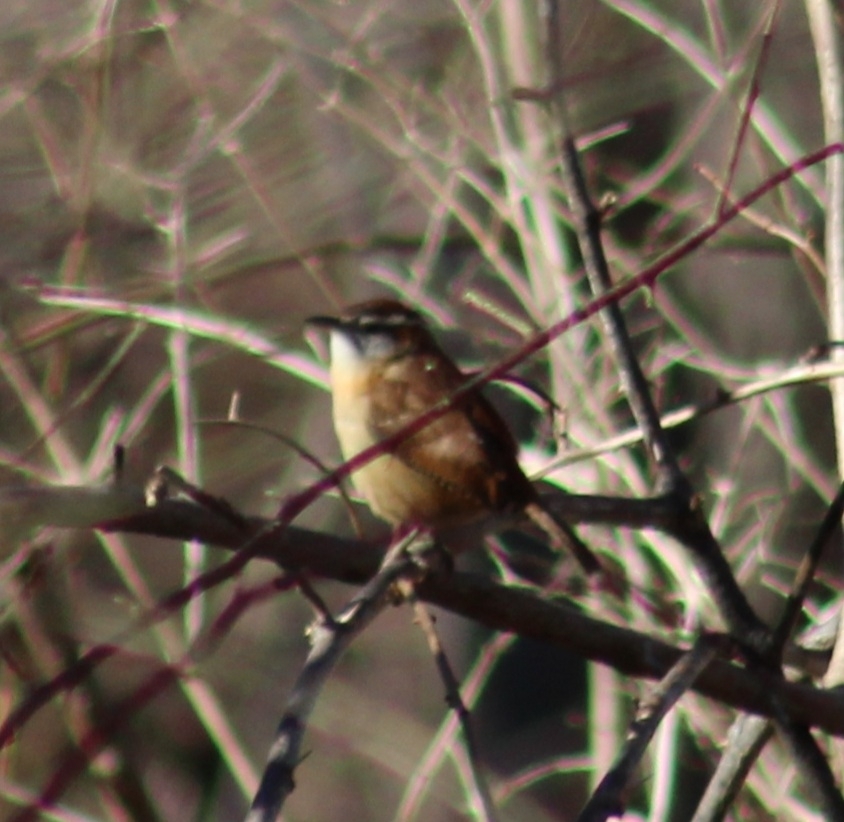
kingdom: Animalia
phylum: Chordata
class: Aves
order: Passeriformes
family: Troglodytidae
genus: Thryothorus
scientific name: Thryothorus ludovicianus
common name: Carolina wren
